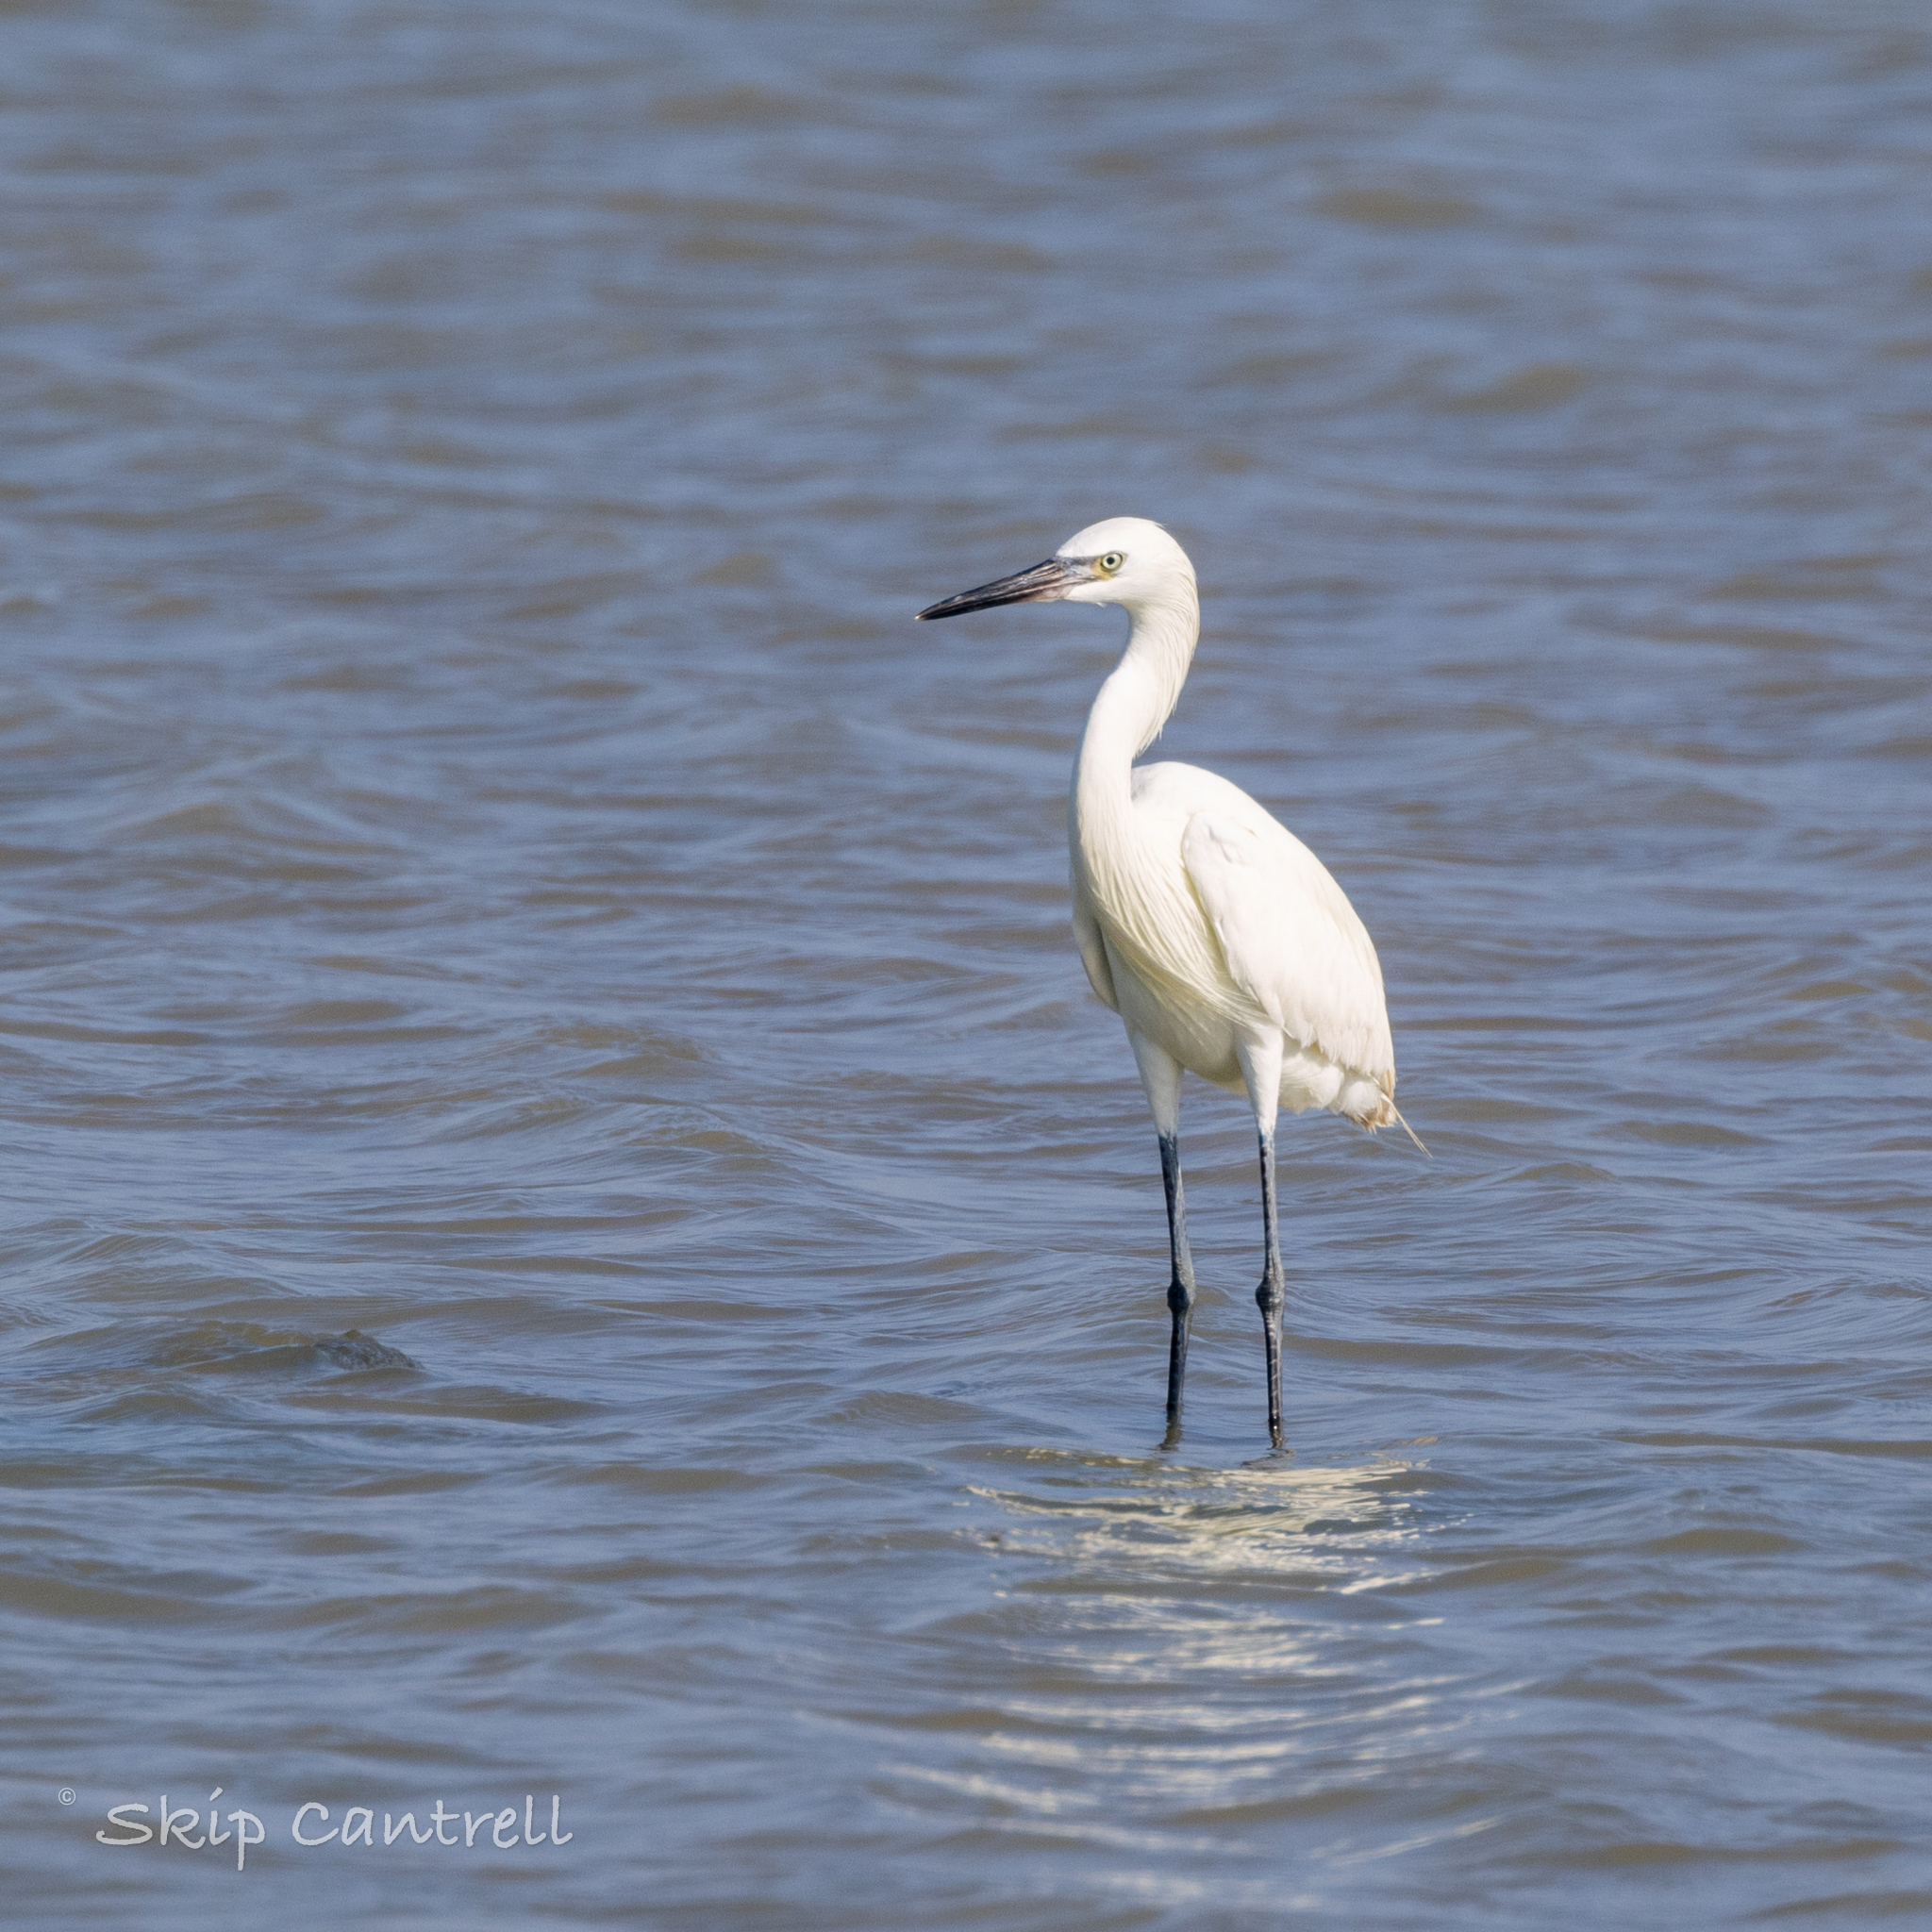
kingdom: Animalia
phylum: Chordata
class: Aves
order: Pelecaniformes
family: Ardeidae
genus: Egretta
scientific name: Egretta rufescens
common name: Reddish egret
